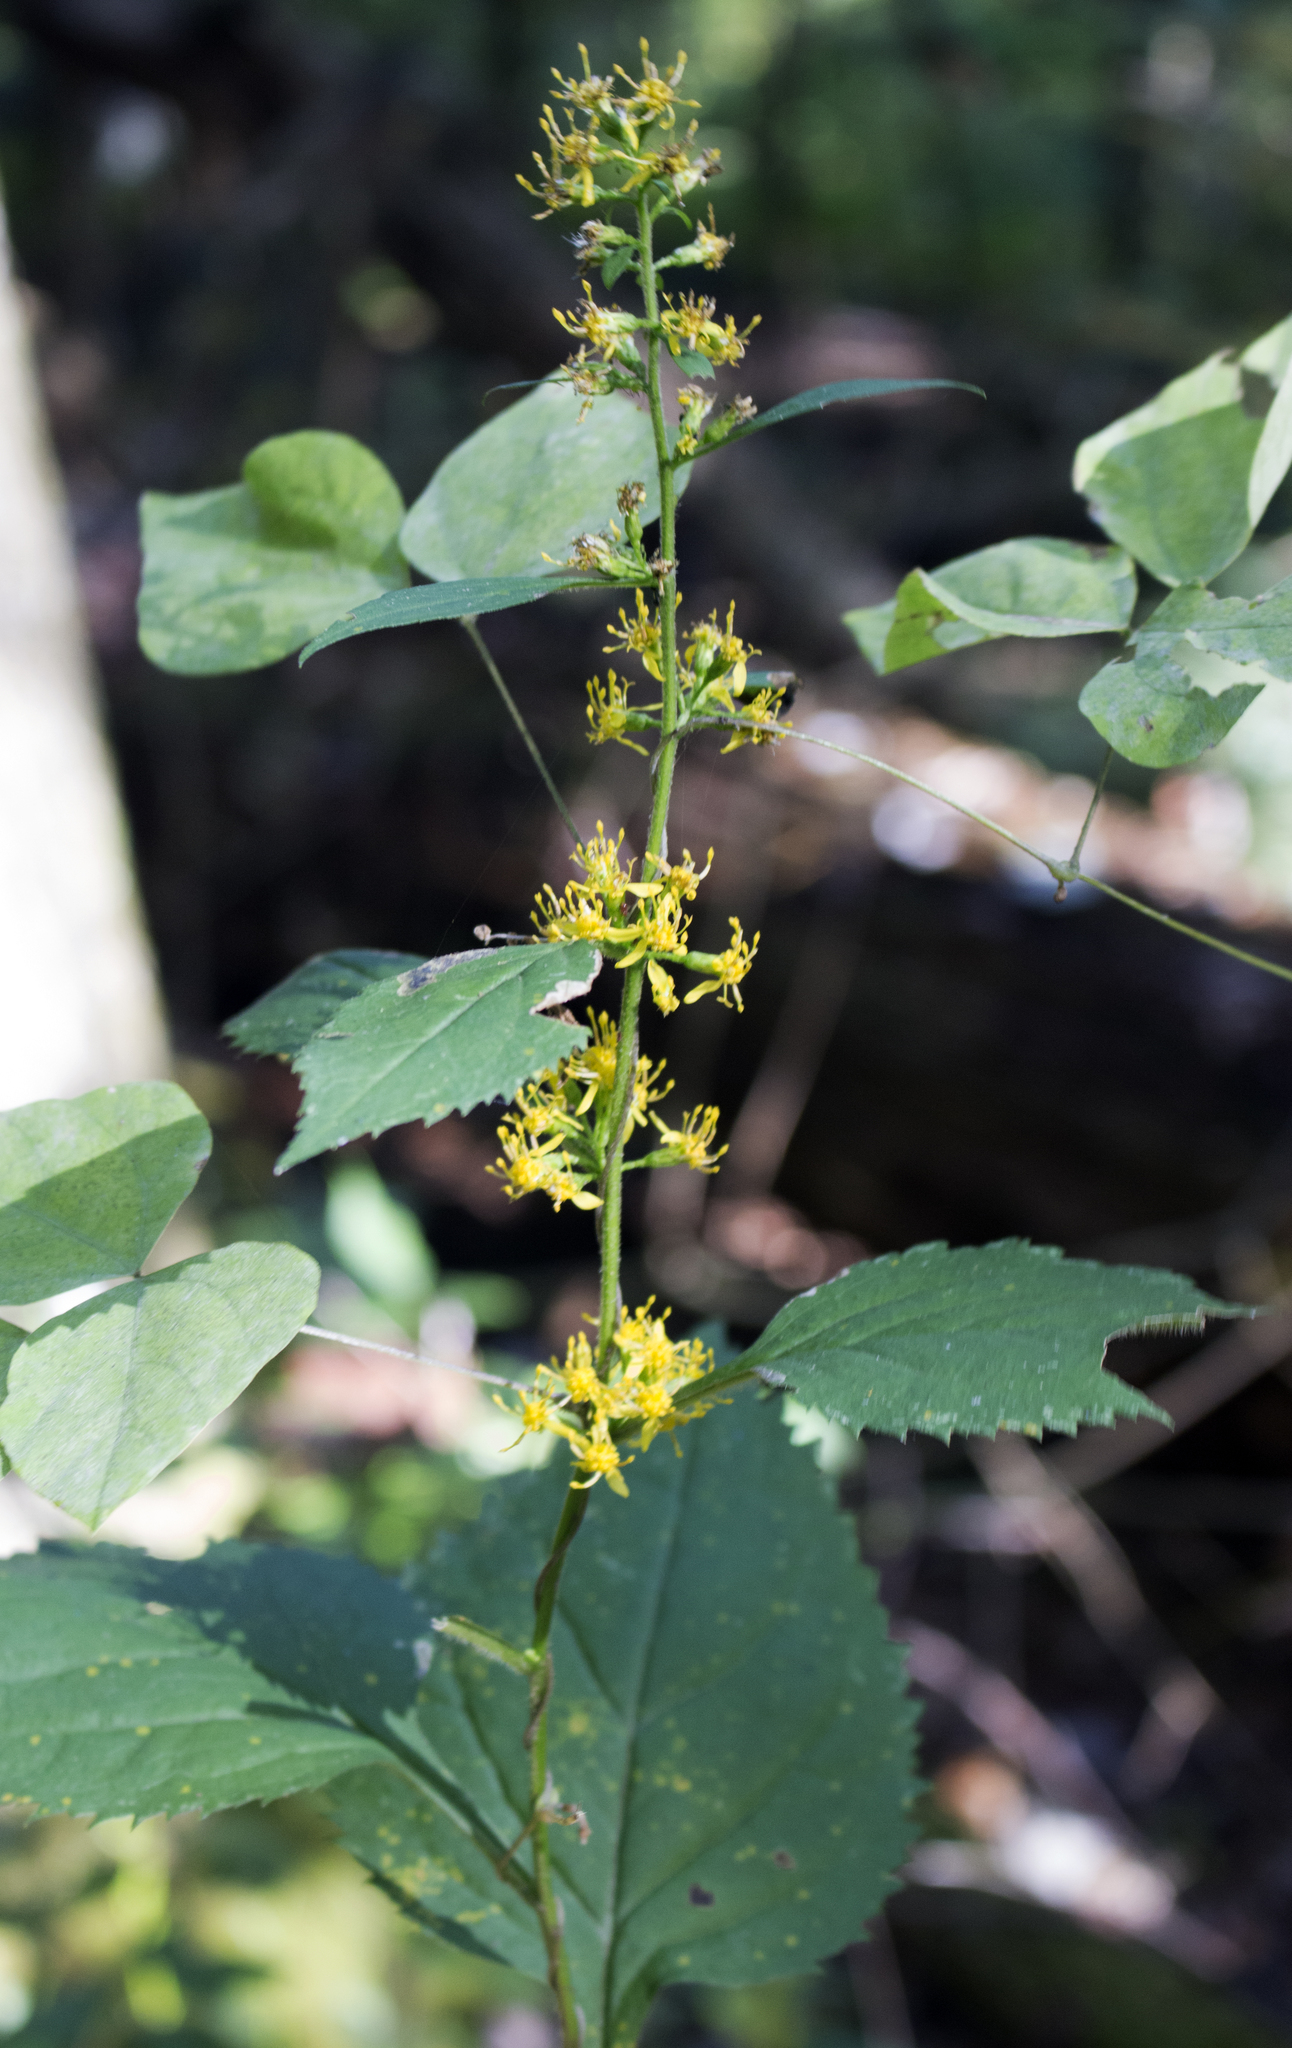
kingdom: Plantae
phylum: Tracheophyta
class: Magnoliopsida
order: Asterales
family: Asteraceae
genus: Solidago
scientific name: Solidago flexicaulis
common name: Zig-zag goldenrod
